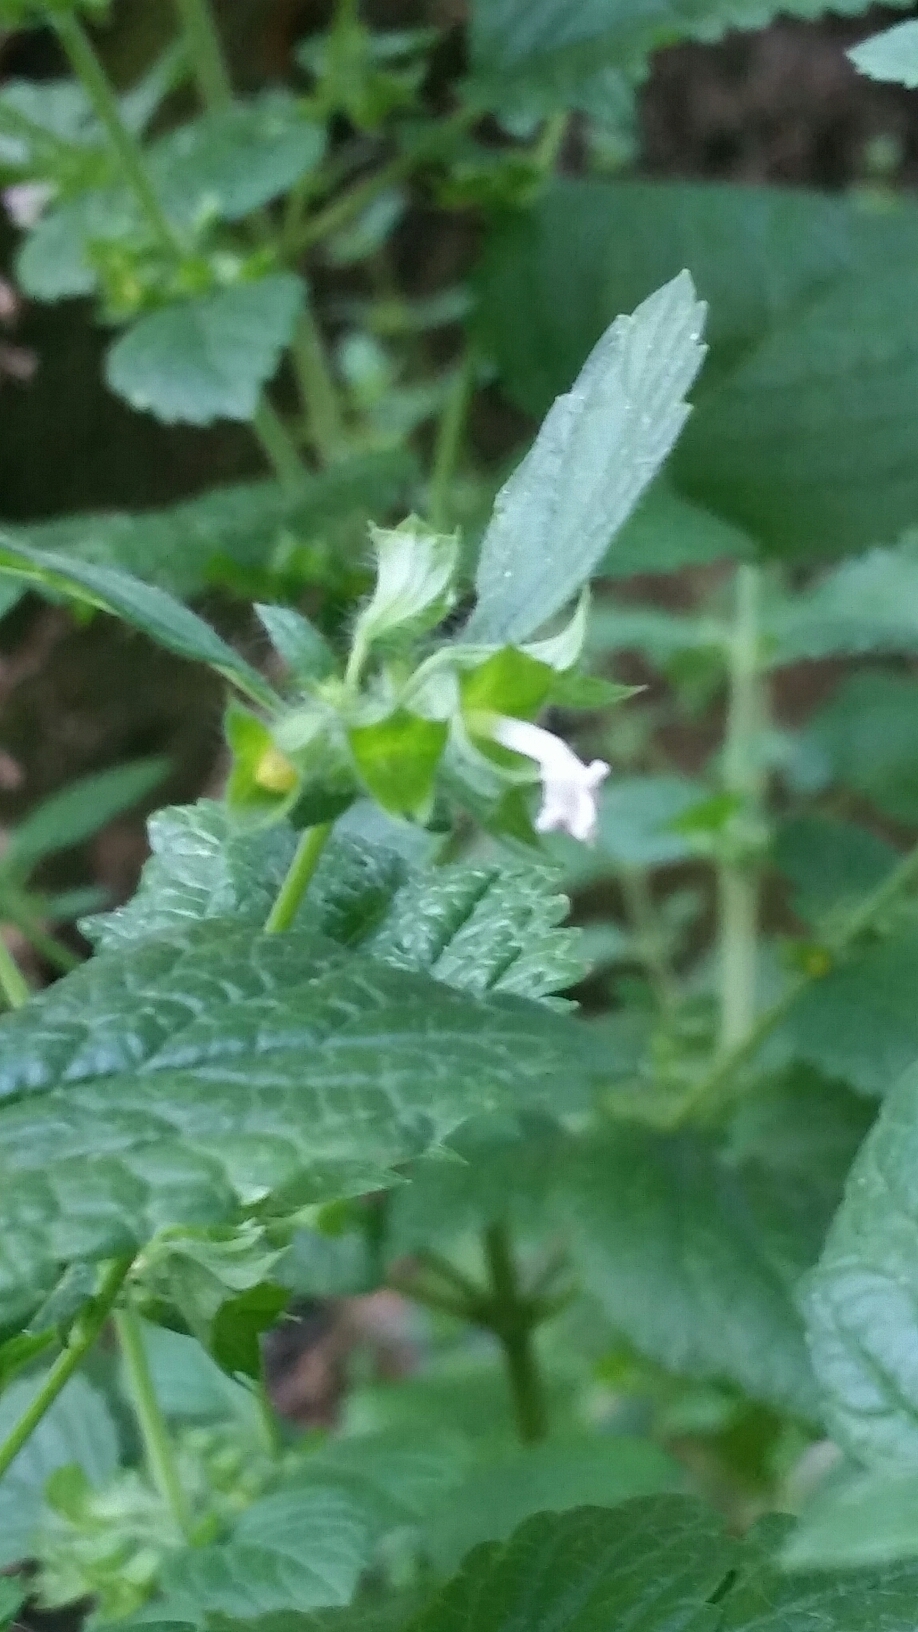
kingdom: Plantae
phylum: Tracheophyta
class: Magnoliopsida
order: Lamiales
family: Lamiaceae
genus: Melissa
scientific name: Melissa officinalis
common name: Balm
